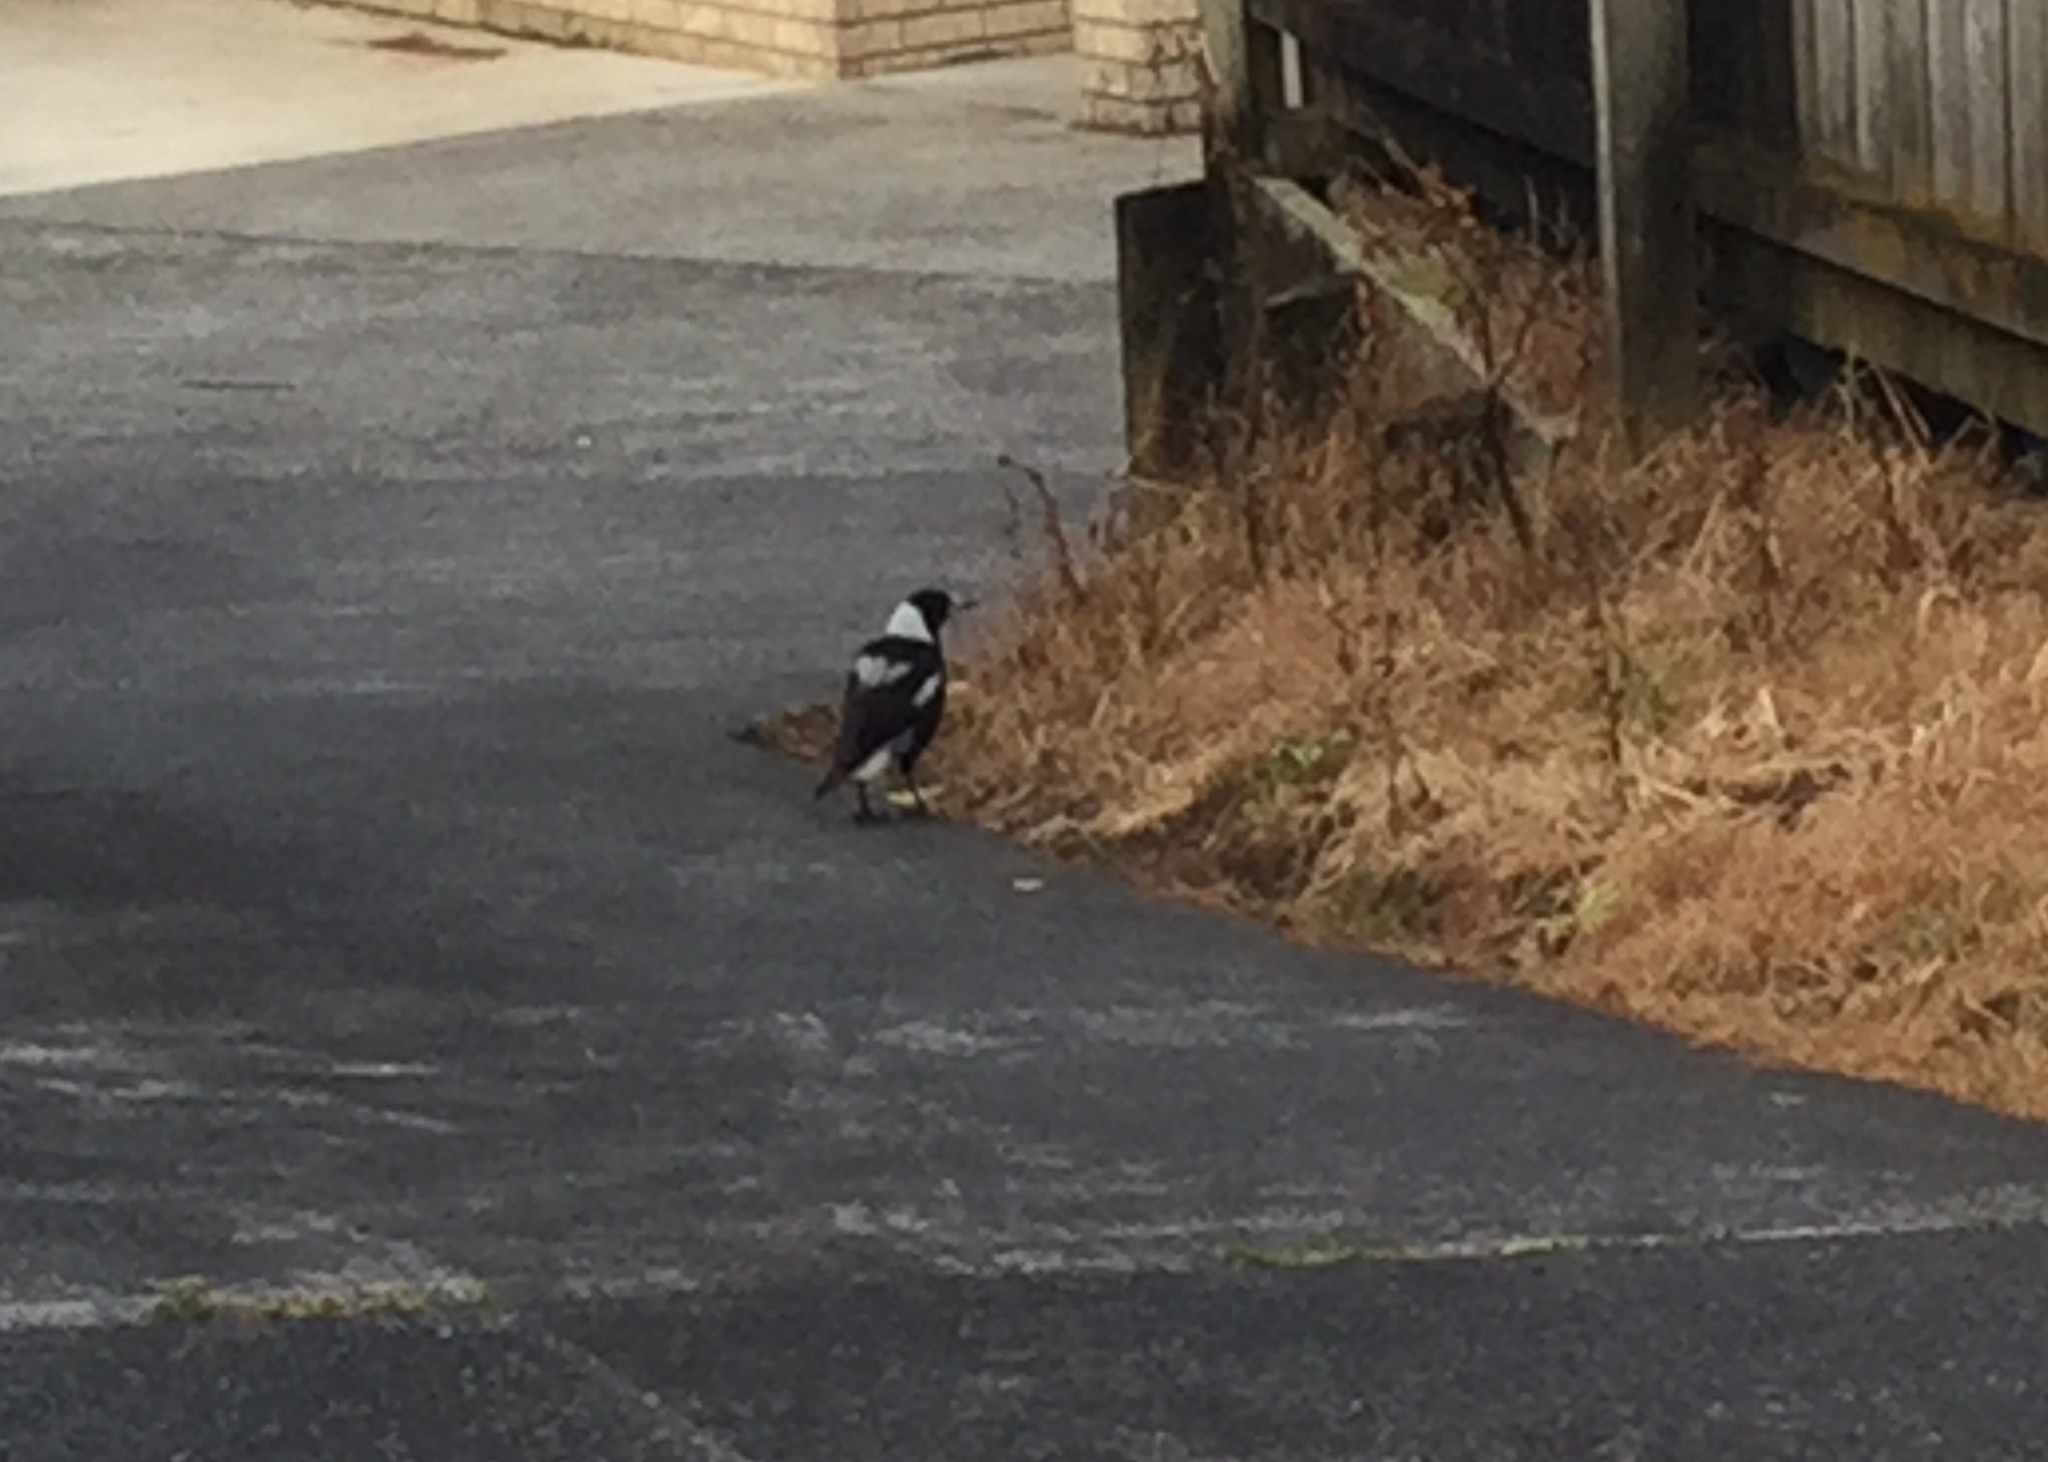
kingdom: Animalia
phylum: Chordata
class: Aves
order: Passeriformes
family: Cracticidae
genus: Gymnorhina
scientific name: Gymnorhina tibicen
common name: Australian magpie
